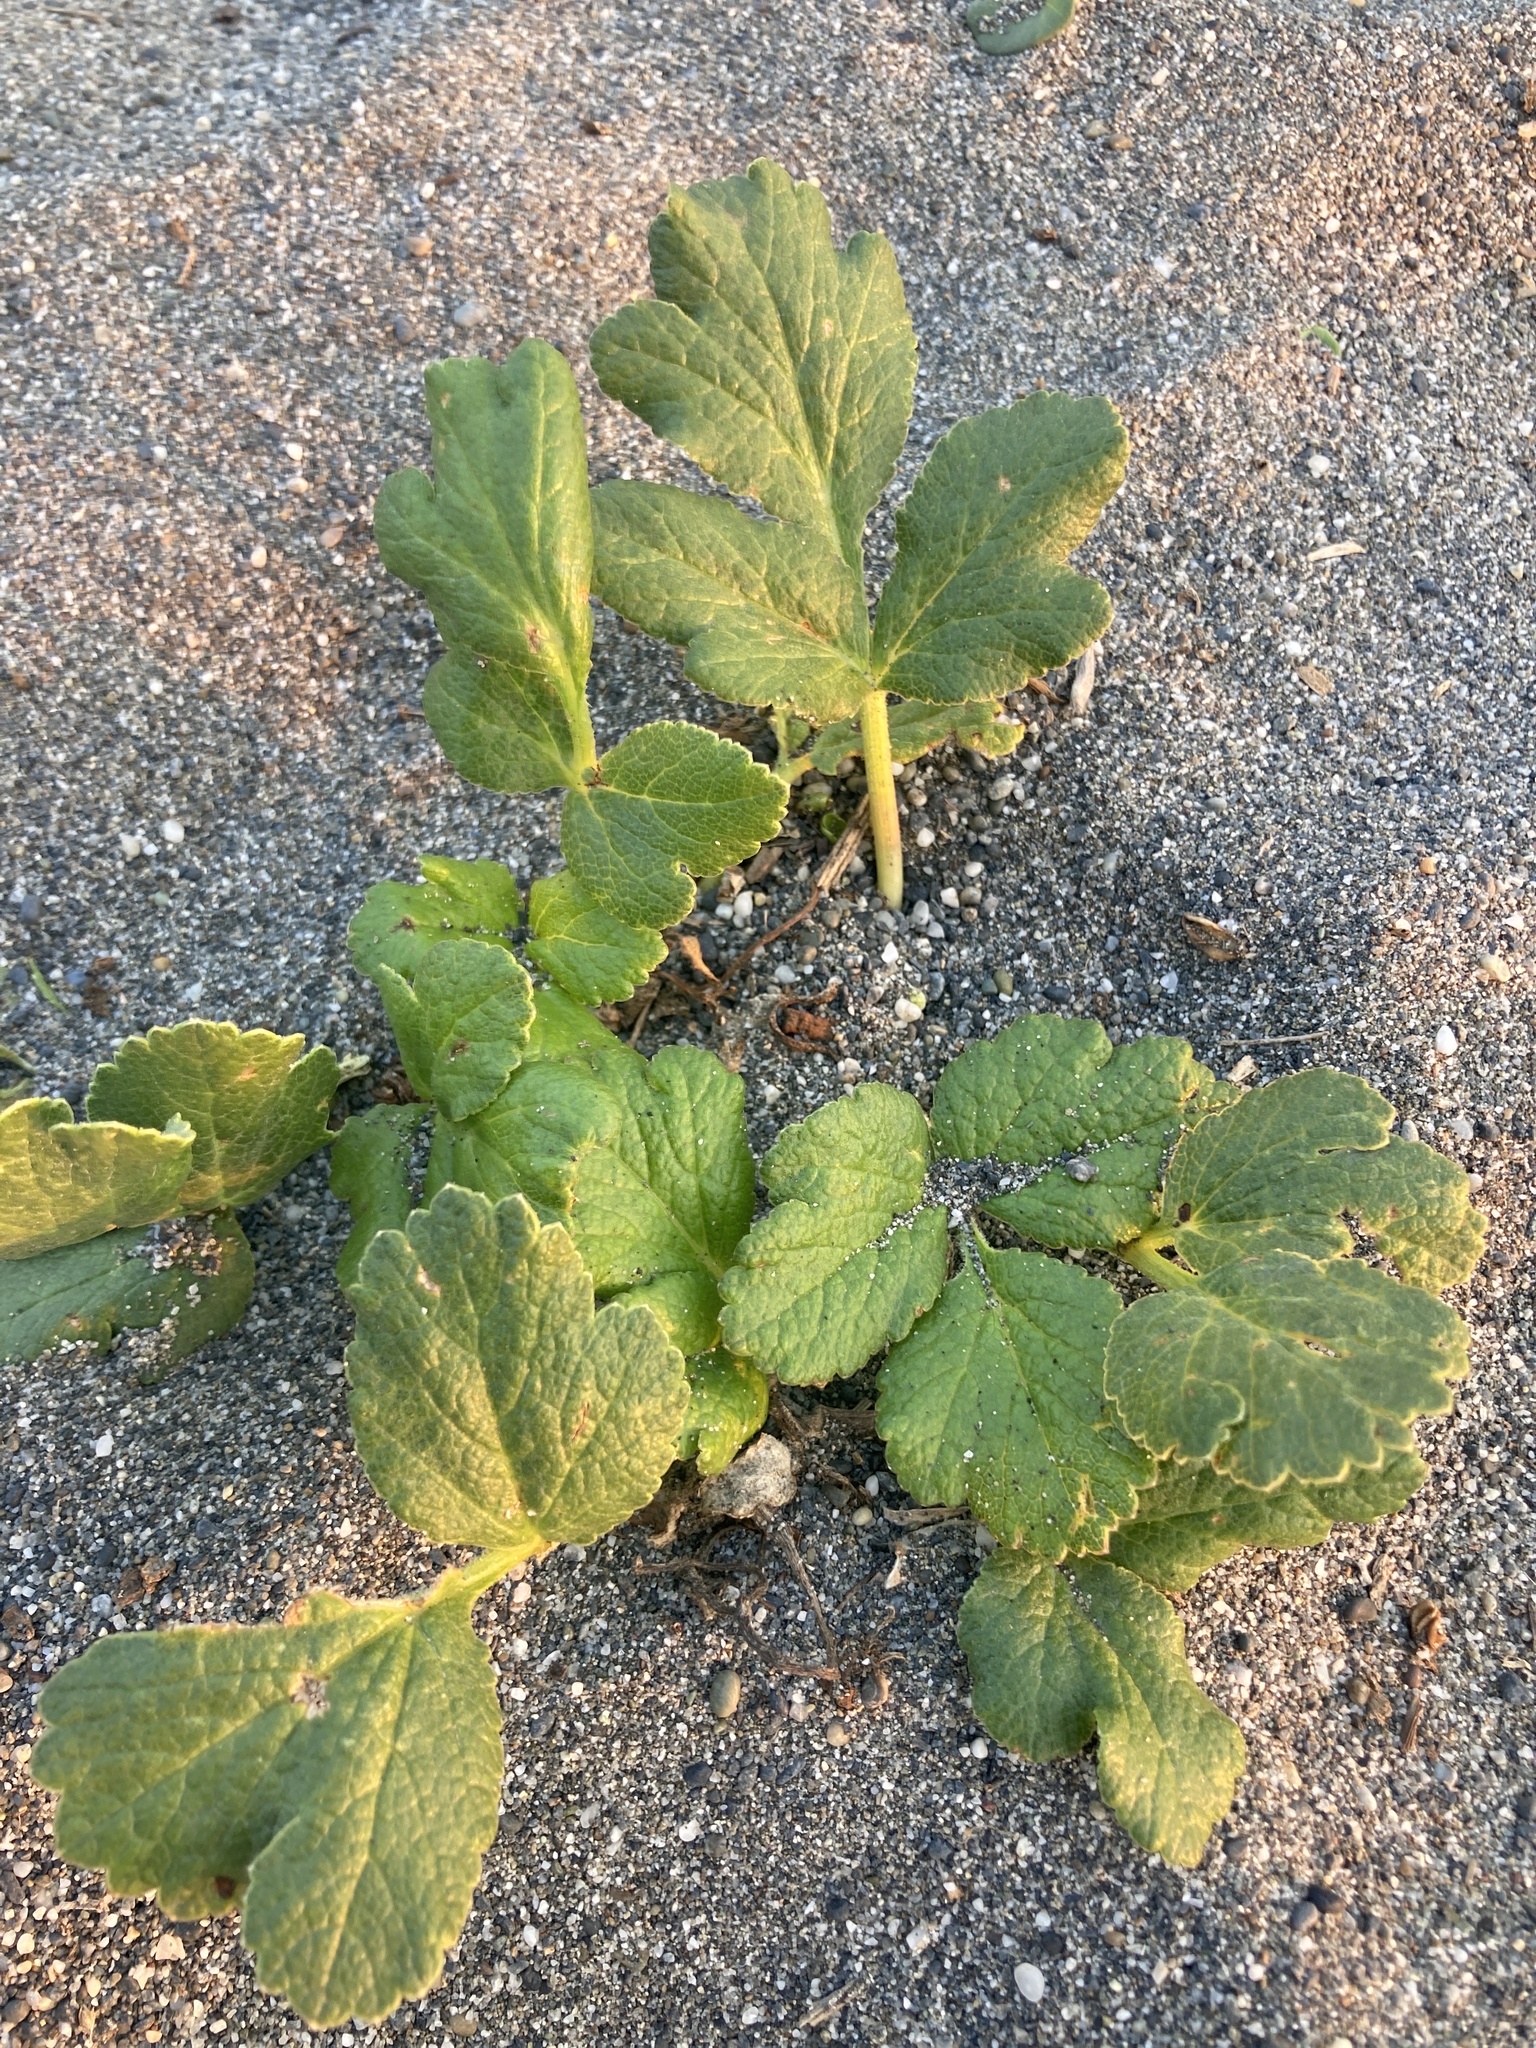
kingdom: Plantae
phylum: Tracheophyta
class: Magnoliopsida
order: Apiales
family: Apiaceae
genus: Angelica
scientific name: Angelica leiocarpa
